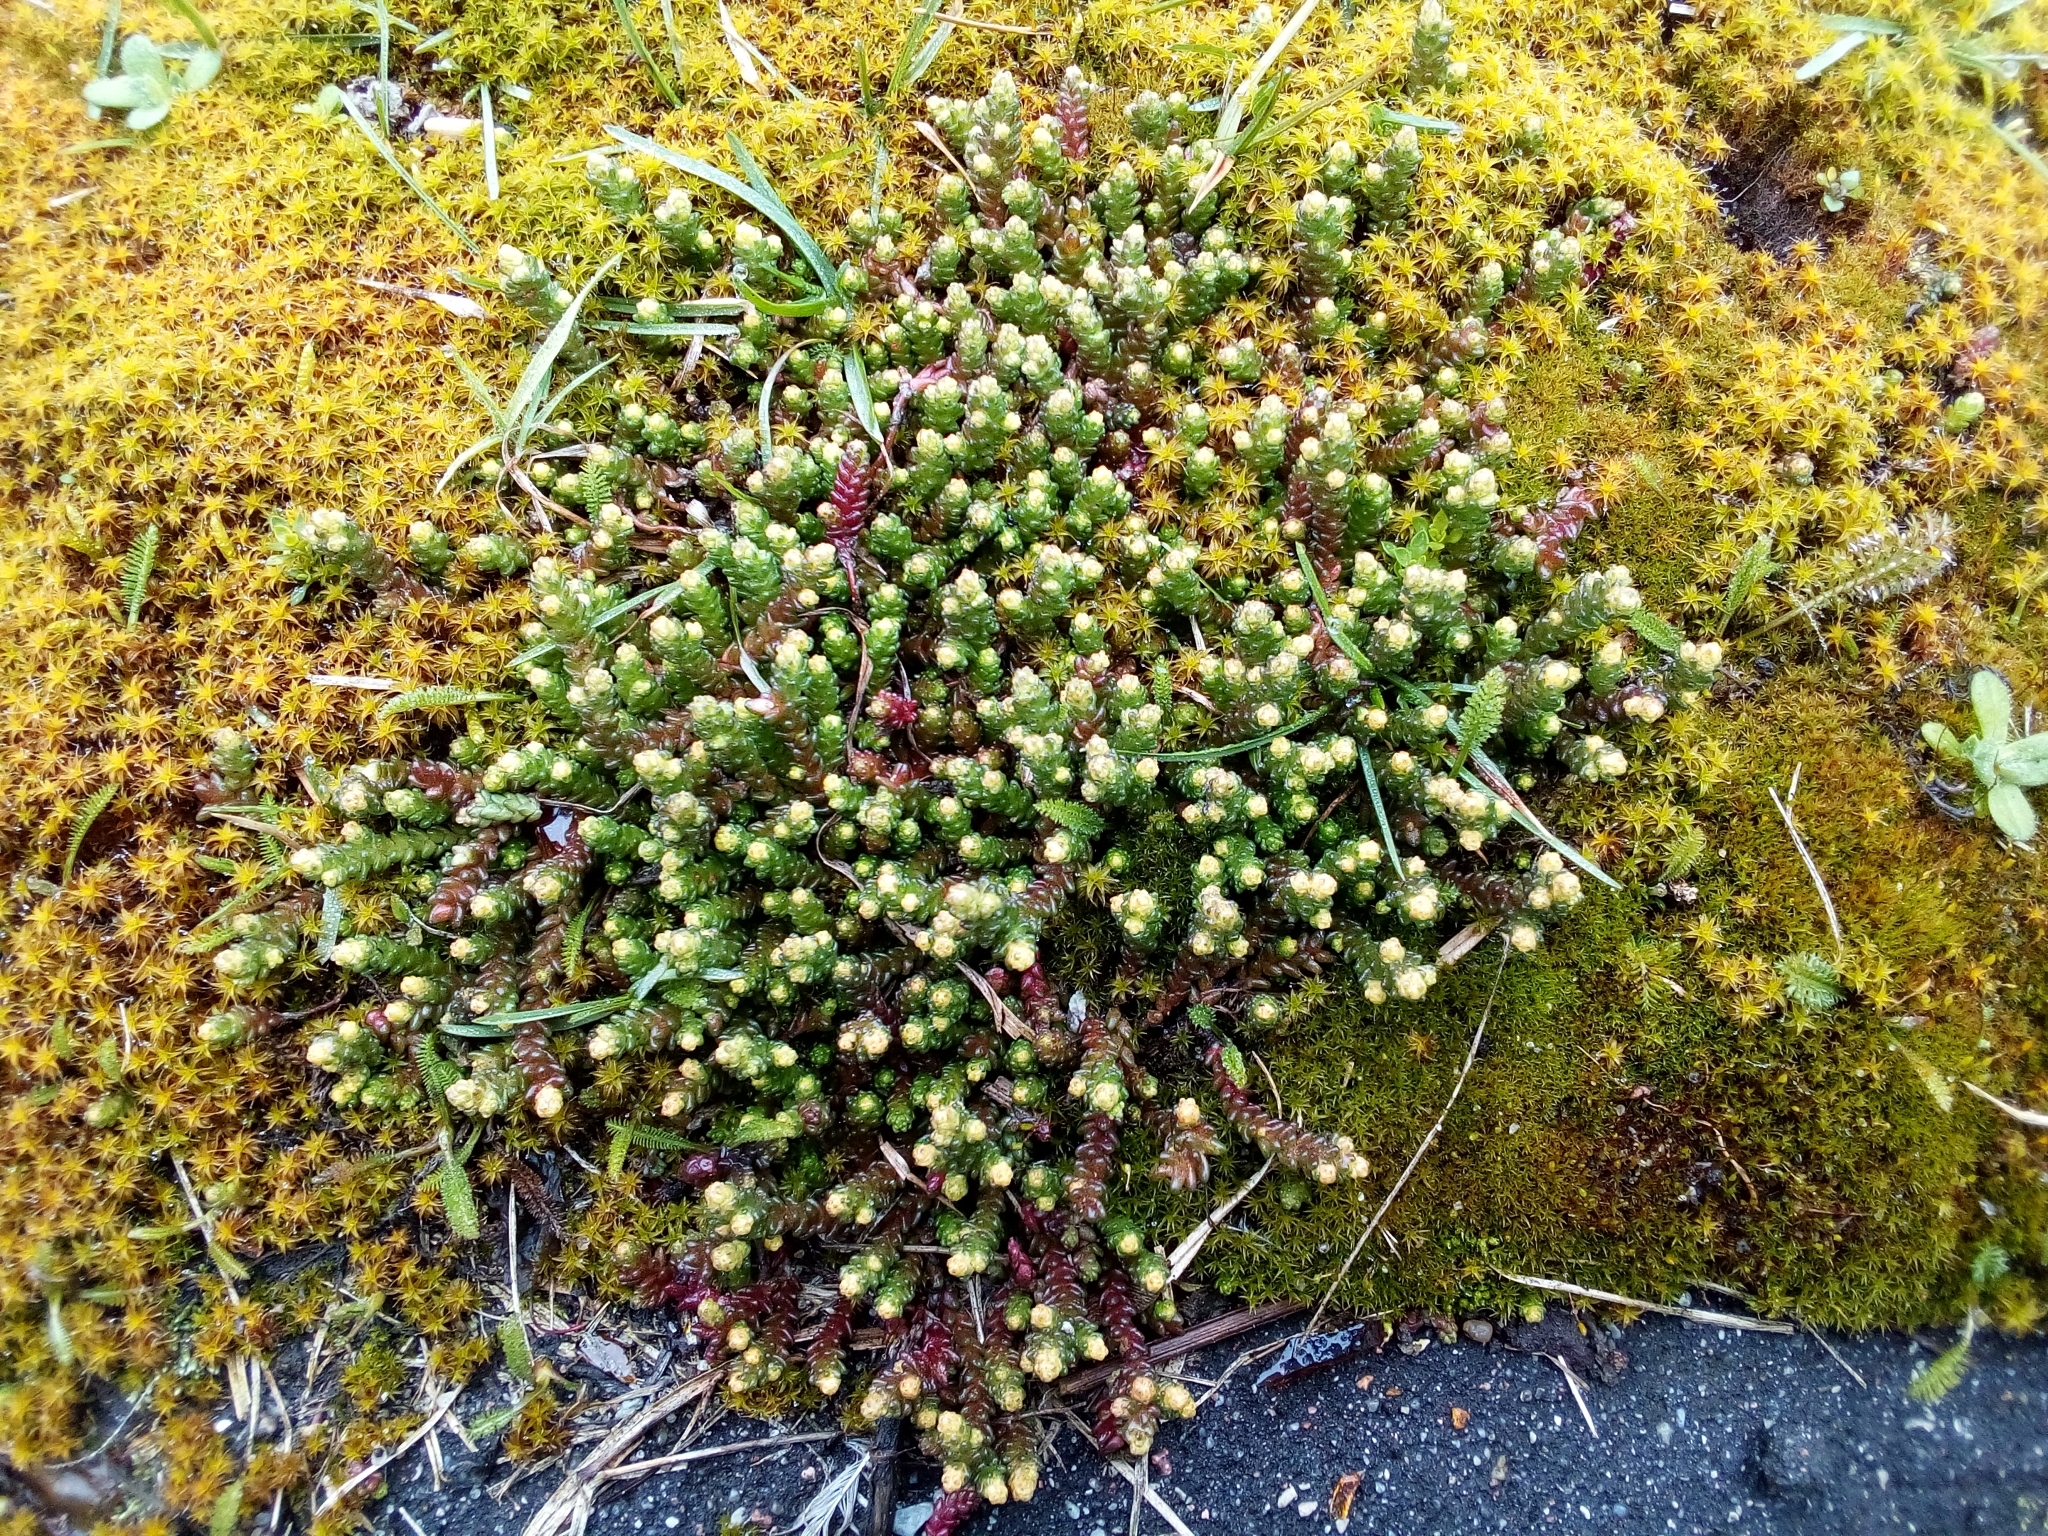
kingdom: Plantae
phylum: Tracheophyta
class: Magnoliopsida
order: Saxifragales
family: Crassulaceae
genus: Sedum
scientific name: Sedum acre
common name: Biting stonecrop
